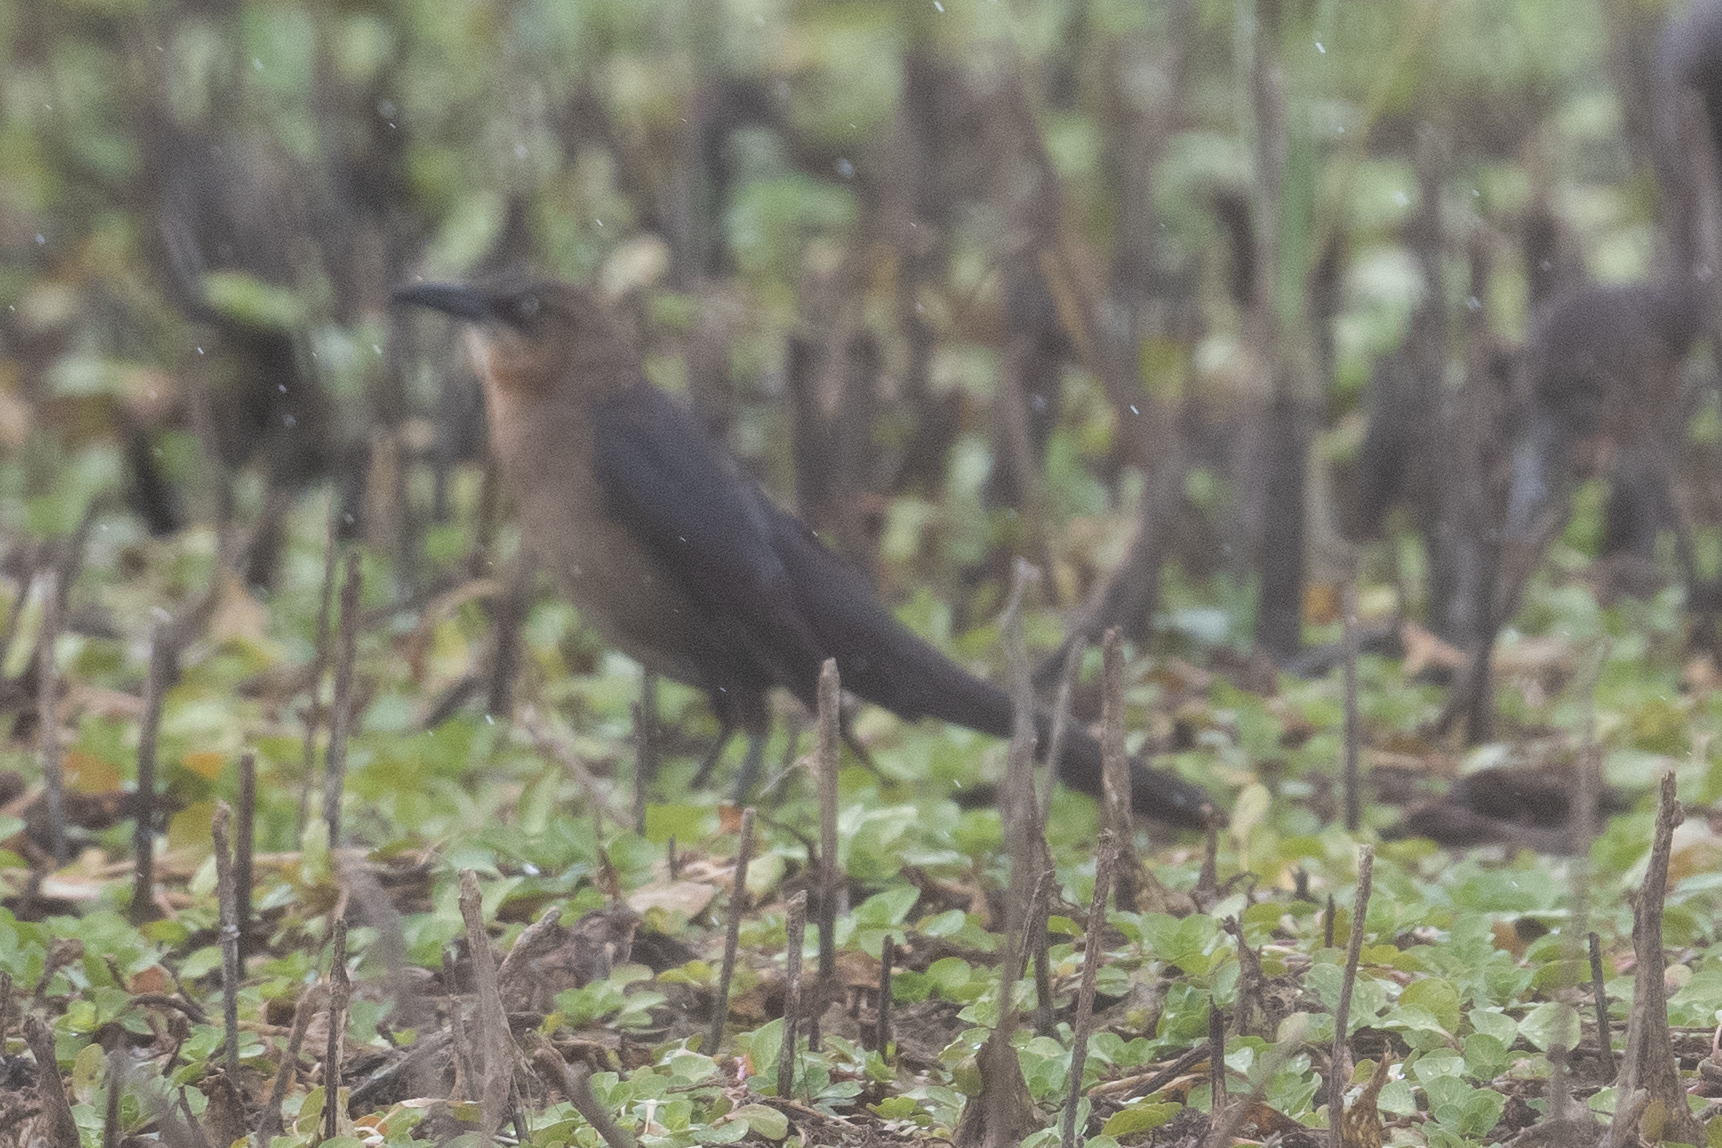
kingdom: Animalia
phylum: Chordata
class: Aves
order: Passeriformes
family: Icteridae
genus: Quiscalus
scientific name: Quiscalus mexicanus
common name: Great-tailed grackle
